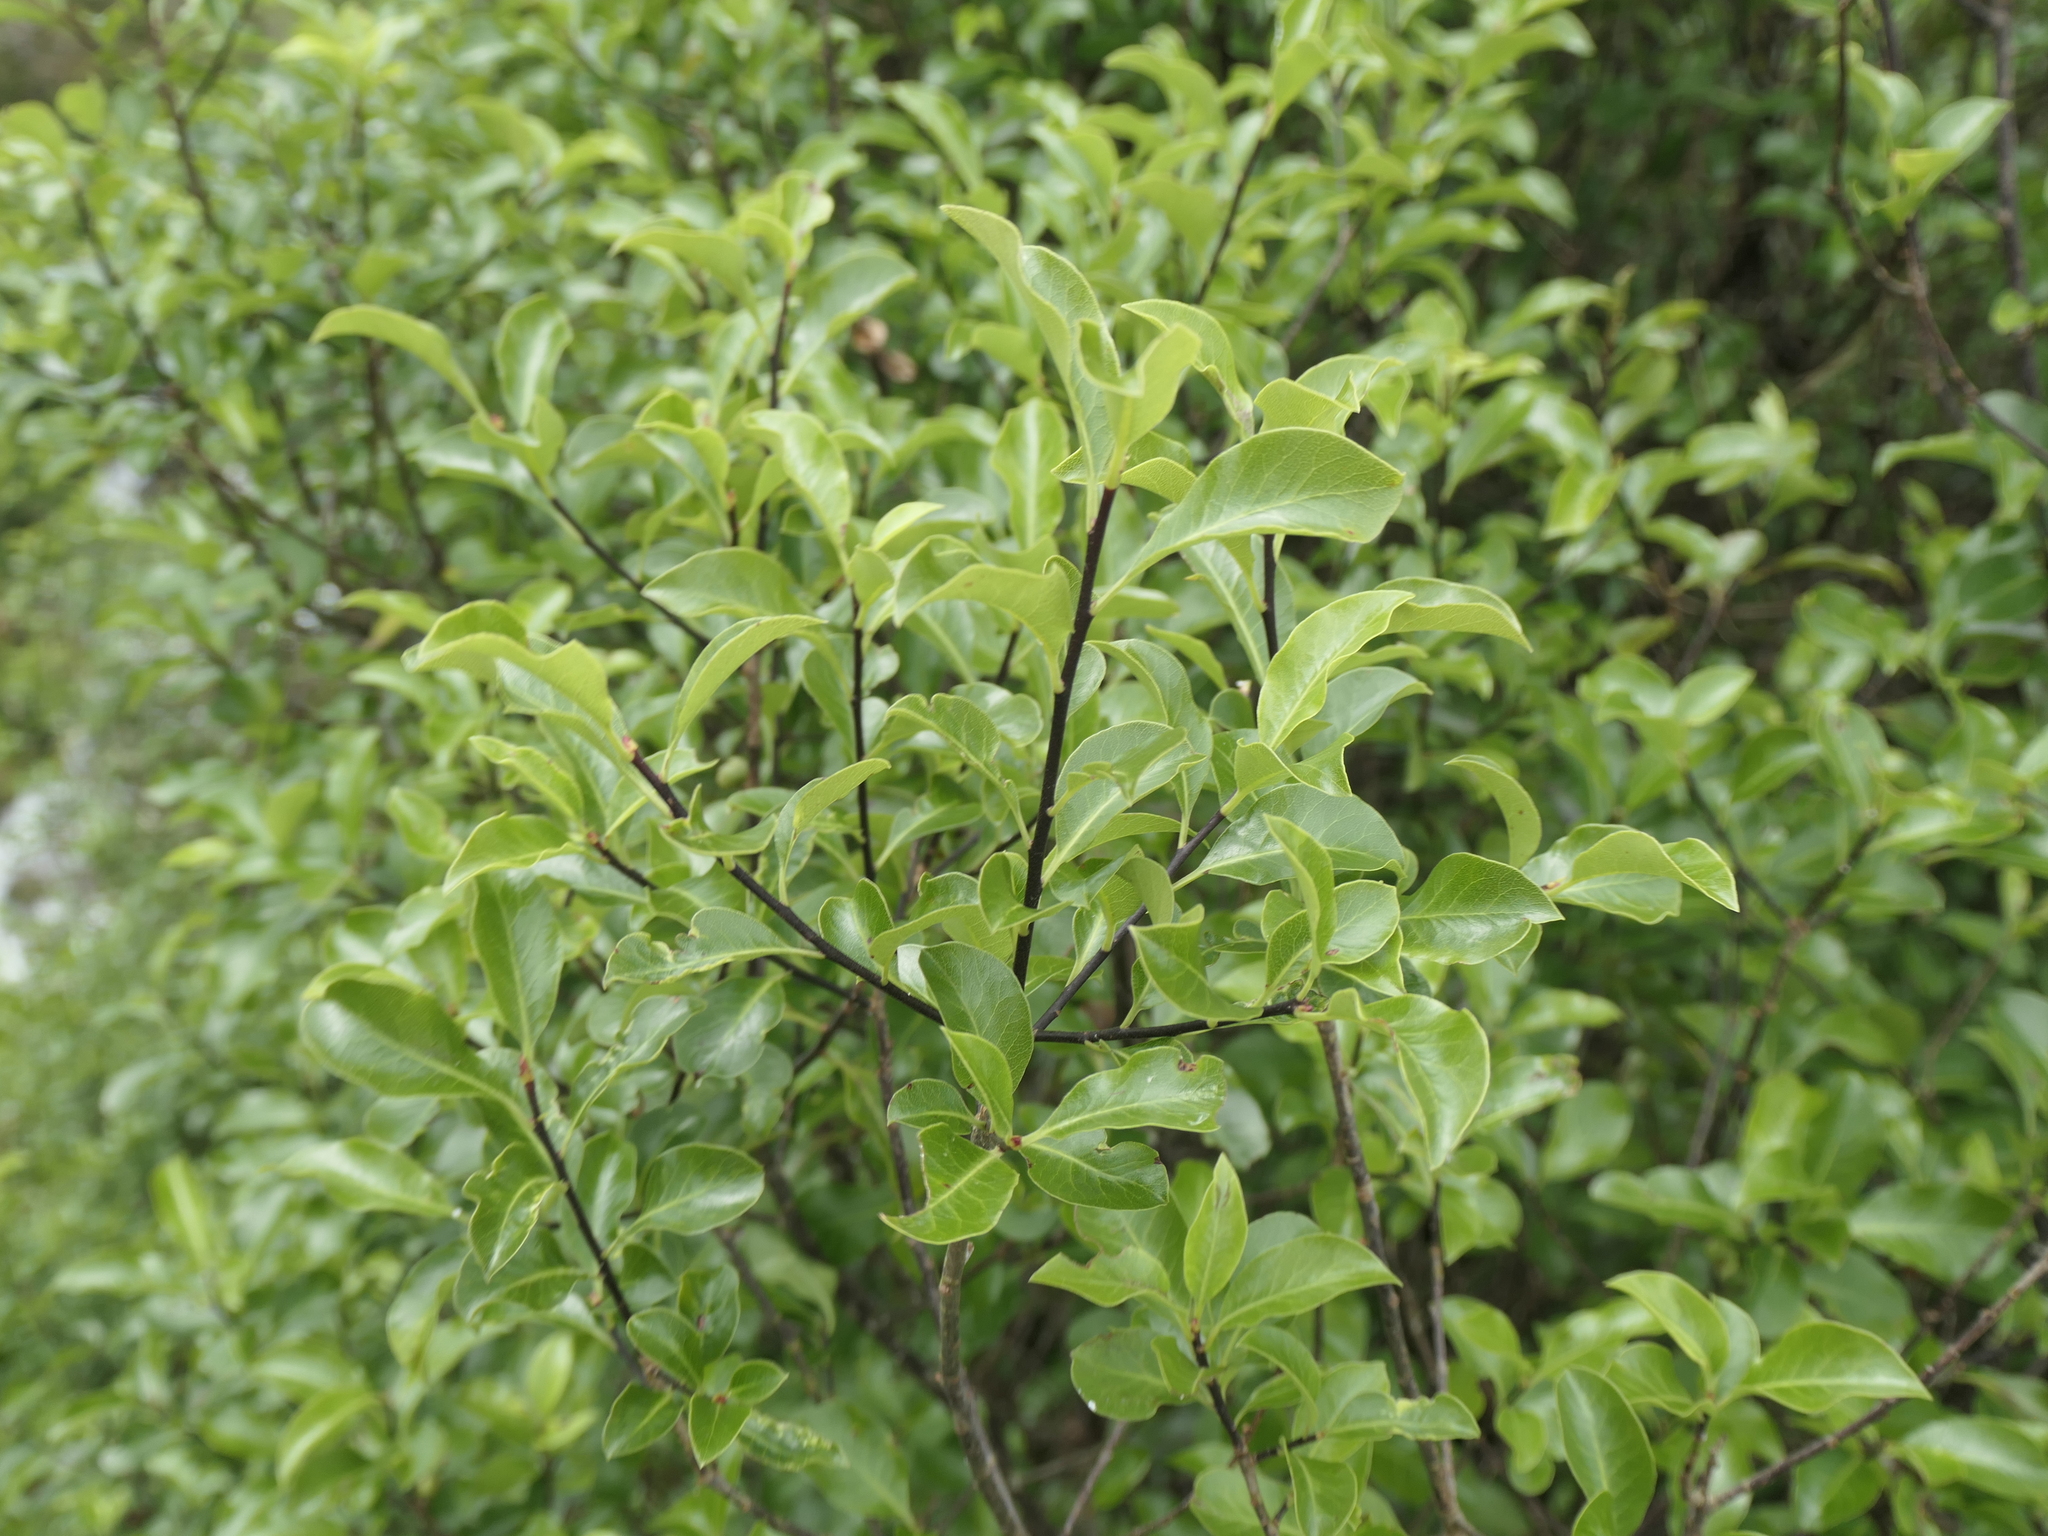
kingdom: Plantae
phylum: Tracheophyta
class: Magnoliopsida
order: Apiales
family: Pittosporaceae
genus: Pittosporum
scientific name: Pittosporum tenuifolium
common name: Kohuhu
